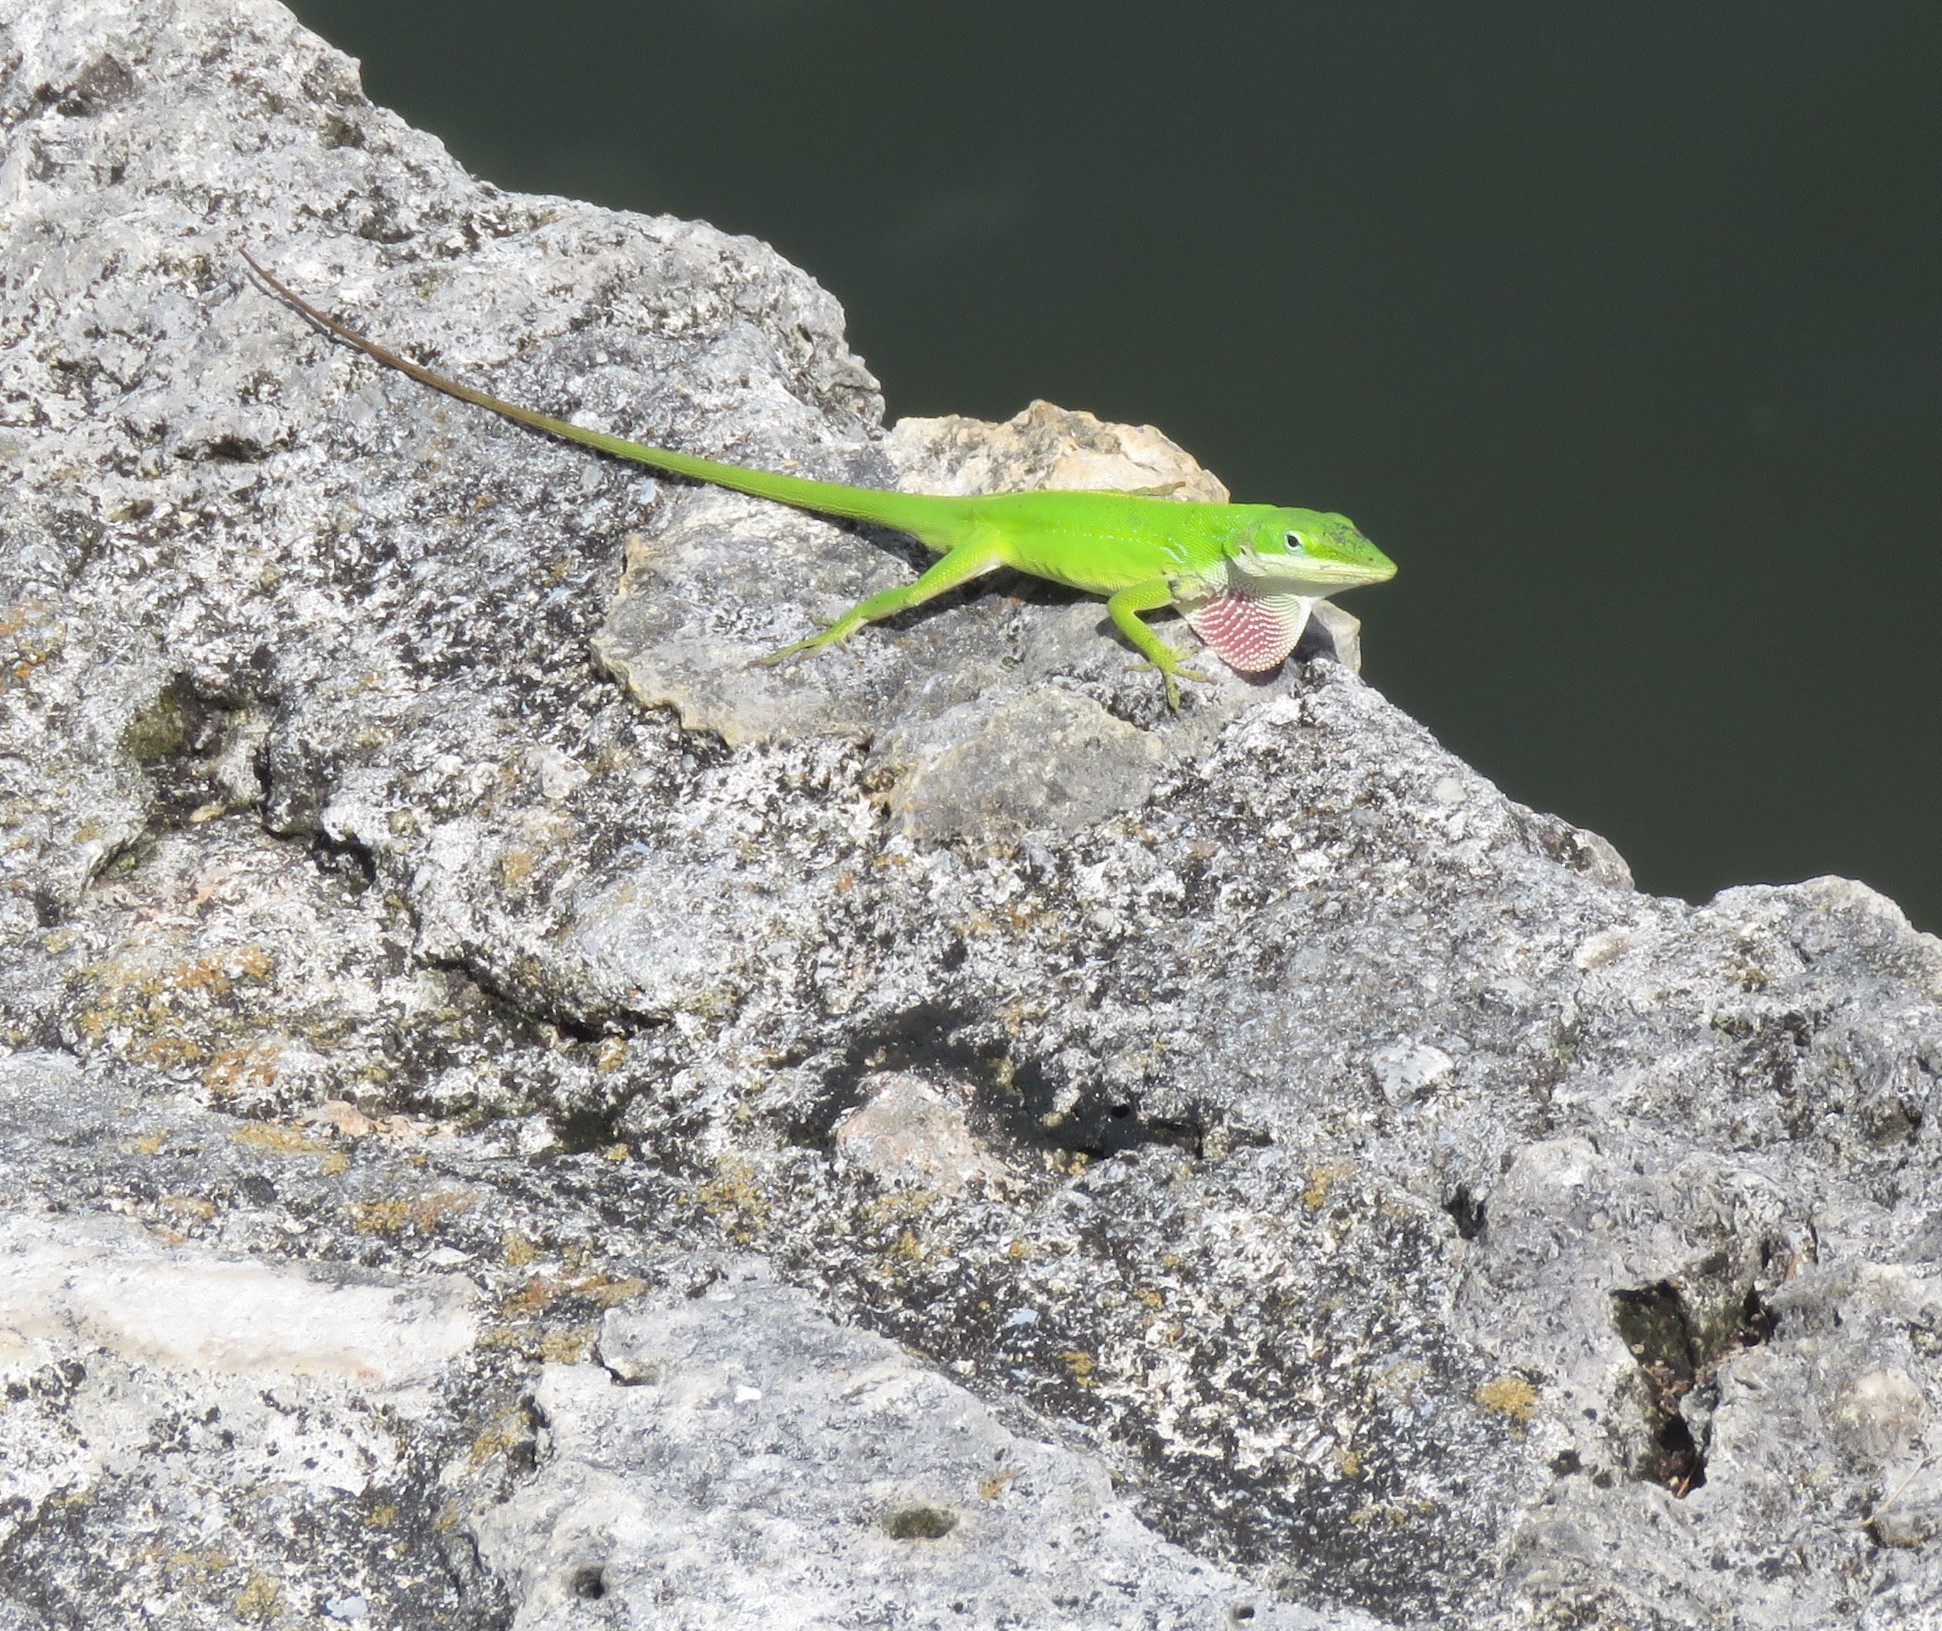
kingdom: Animalia
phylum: Chordata
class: Squamata
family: Dactyloidae
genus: Anolis
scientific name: Anolis carolinensis
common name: Green anole
